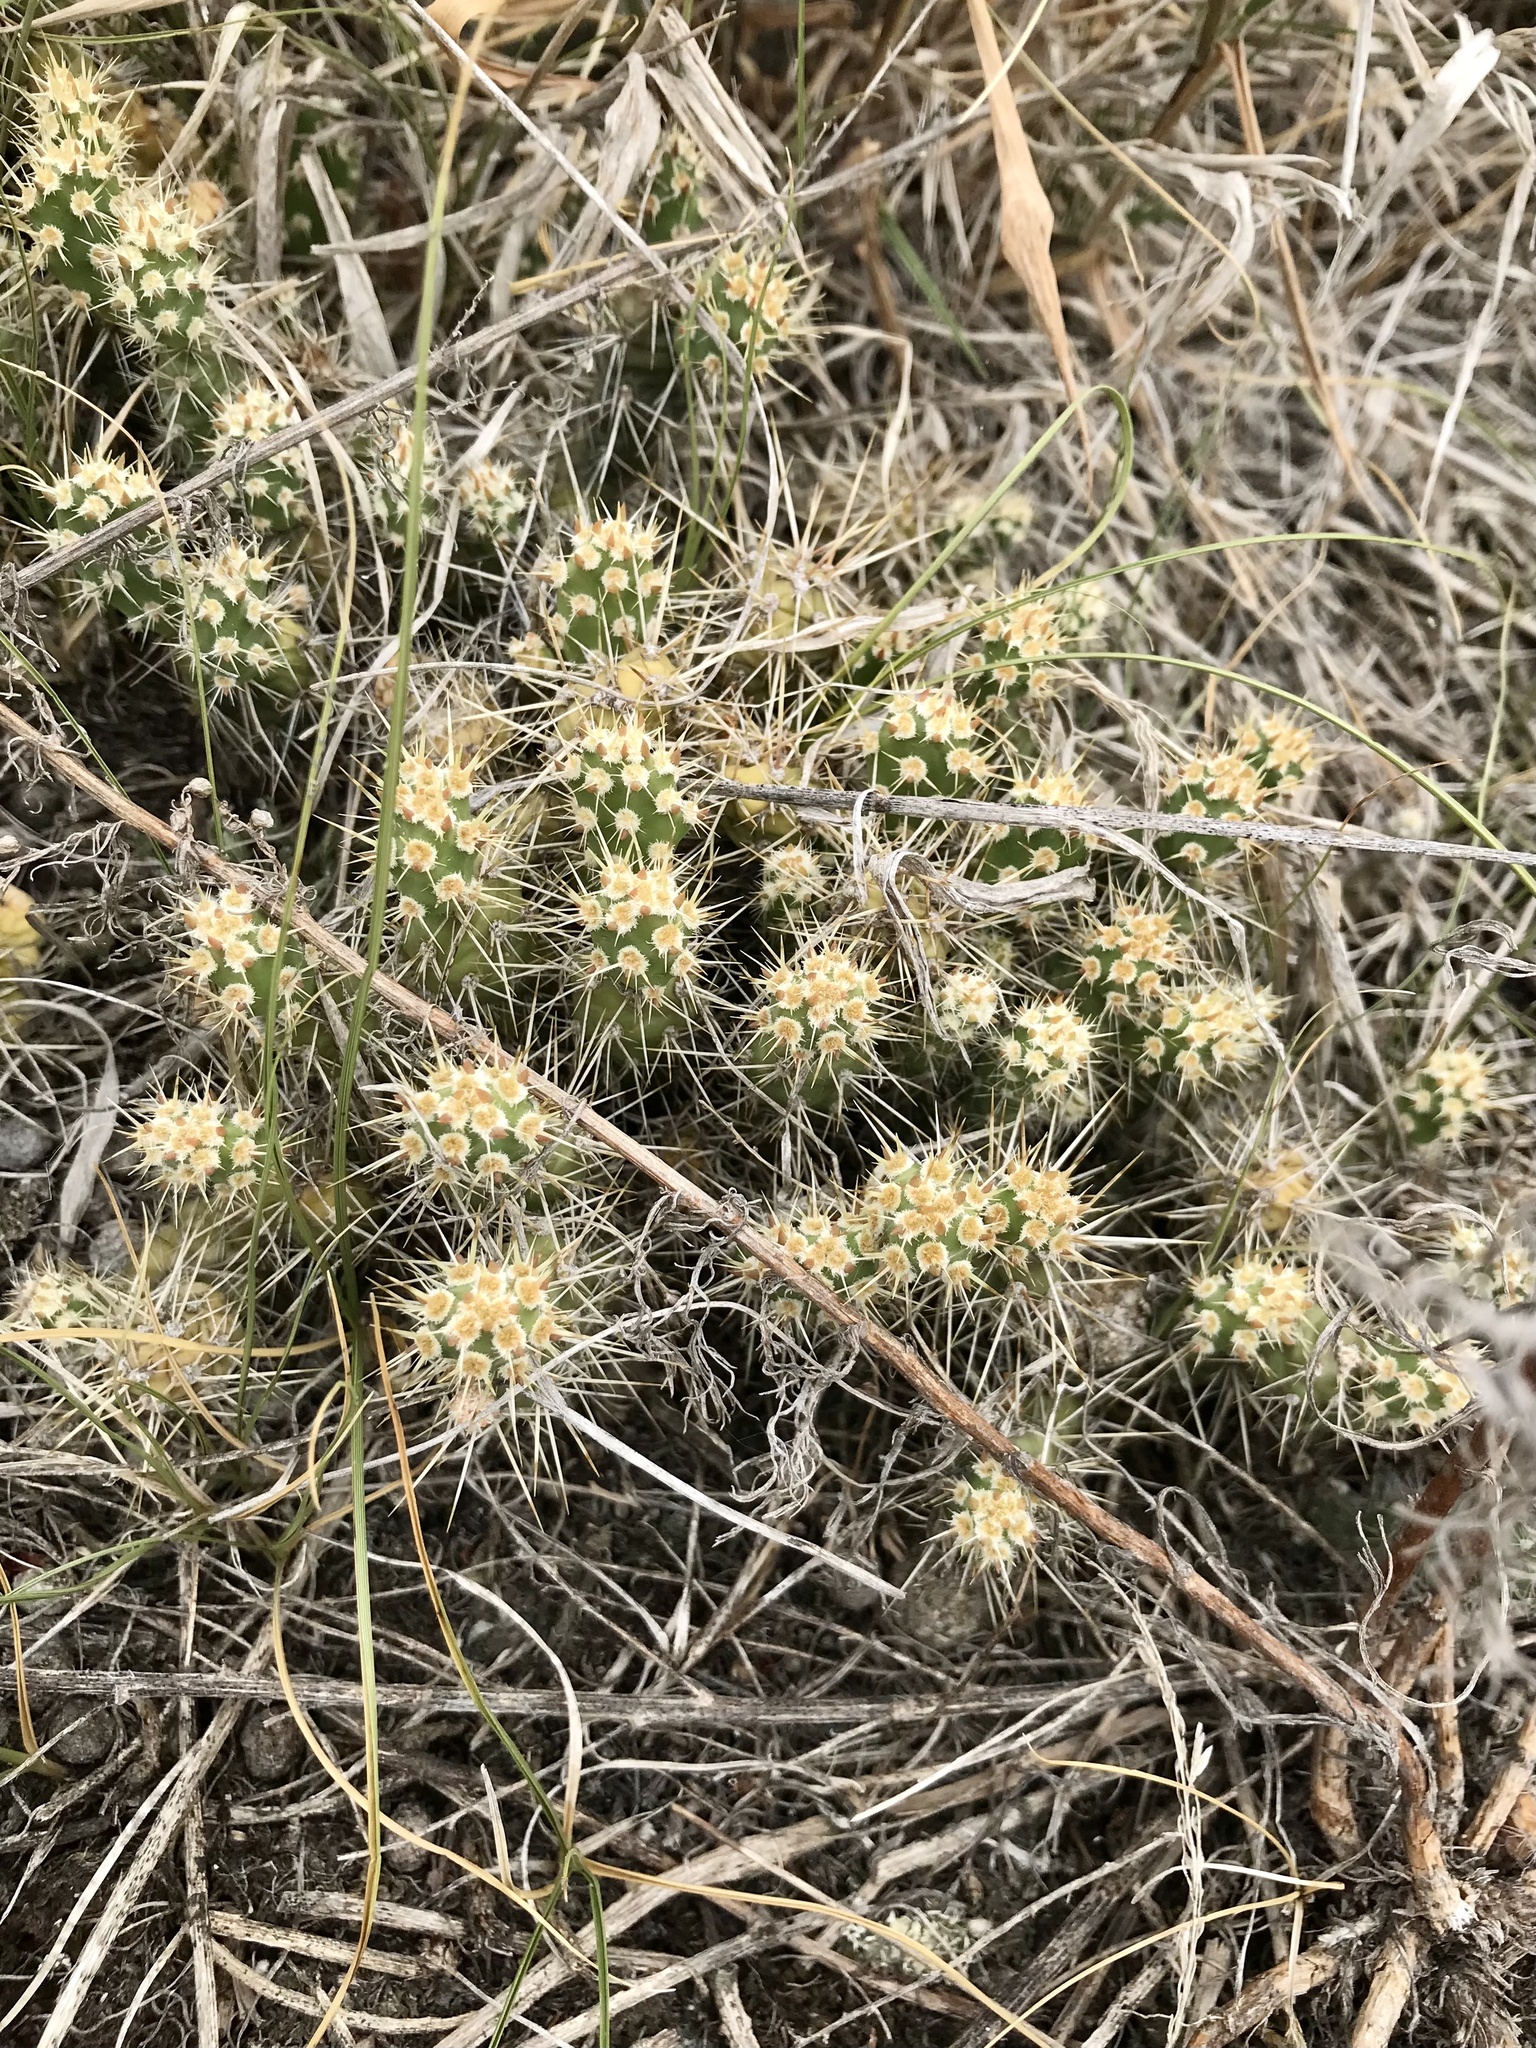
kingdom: Plantae
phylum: Tracheophyta
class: Magnoliopsida
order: Caryophyllales
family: Cactaceae
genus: Opuntia
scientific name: Opuntia fragilis
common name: Brittle cactus
